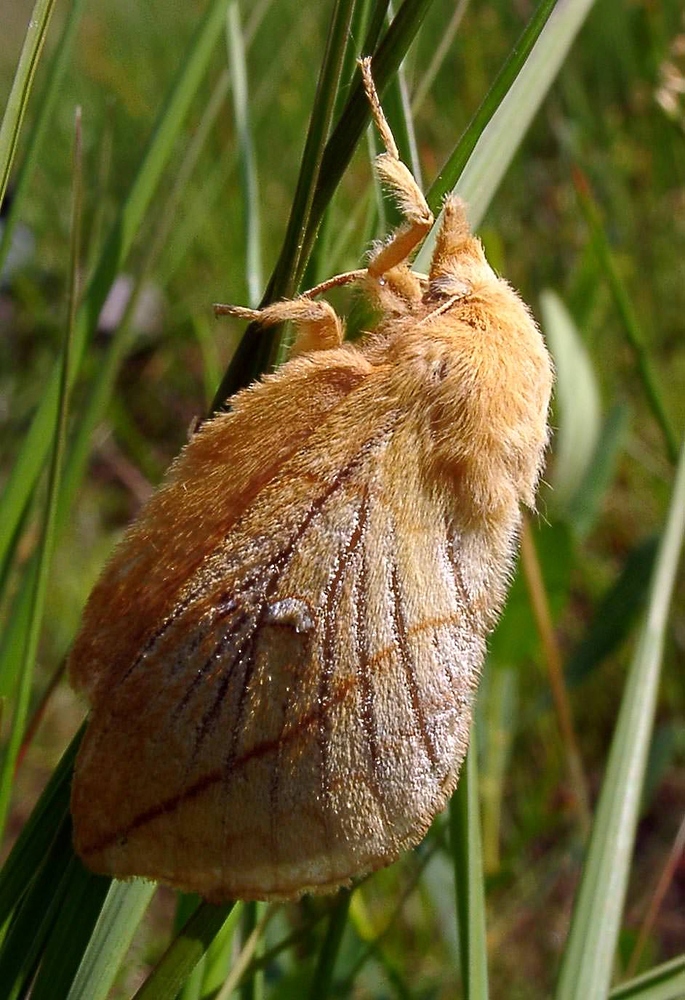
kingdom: Animalia
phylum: Arthropoda
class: Insecta
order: Lepidoptera
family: Lasiocampidae
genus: Euthrix
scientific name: Euthrix potatoria
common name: Drinker
